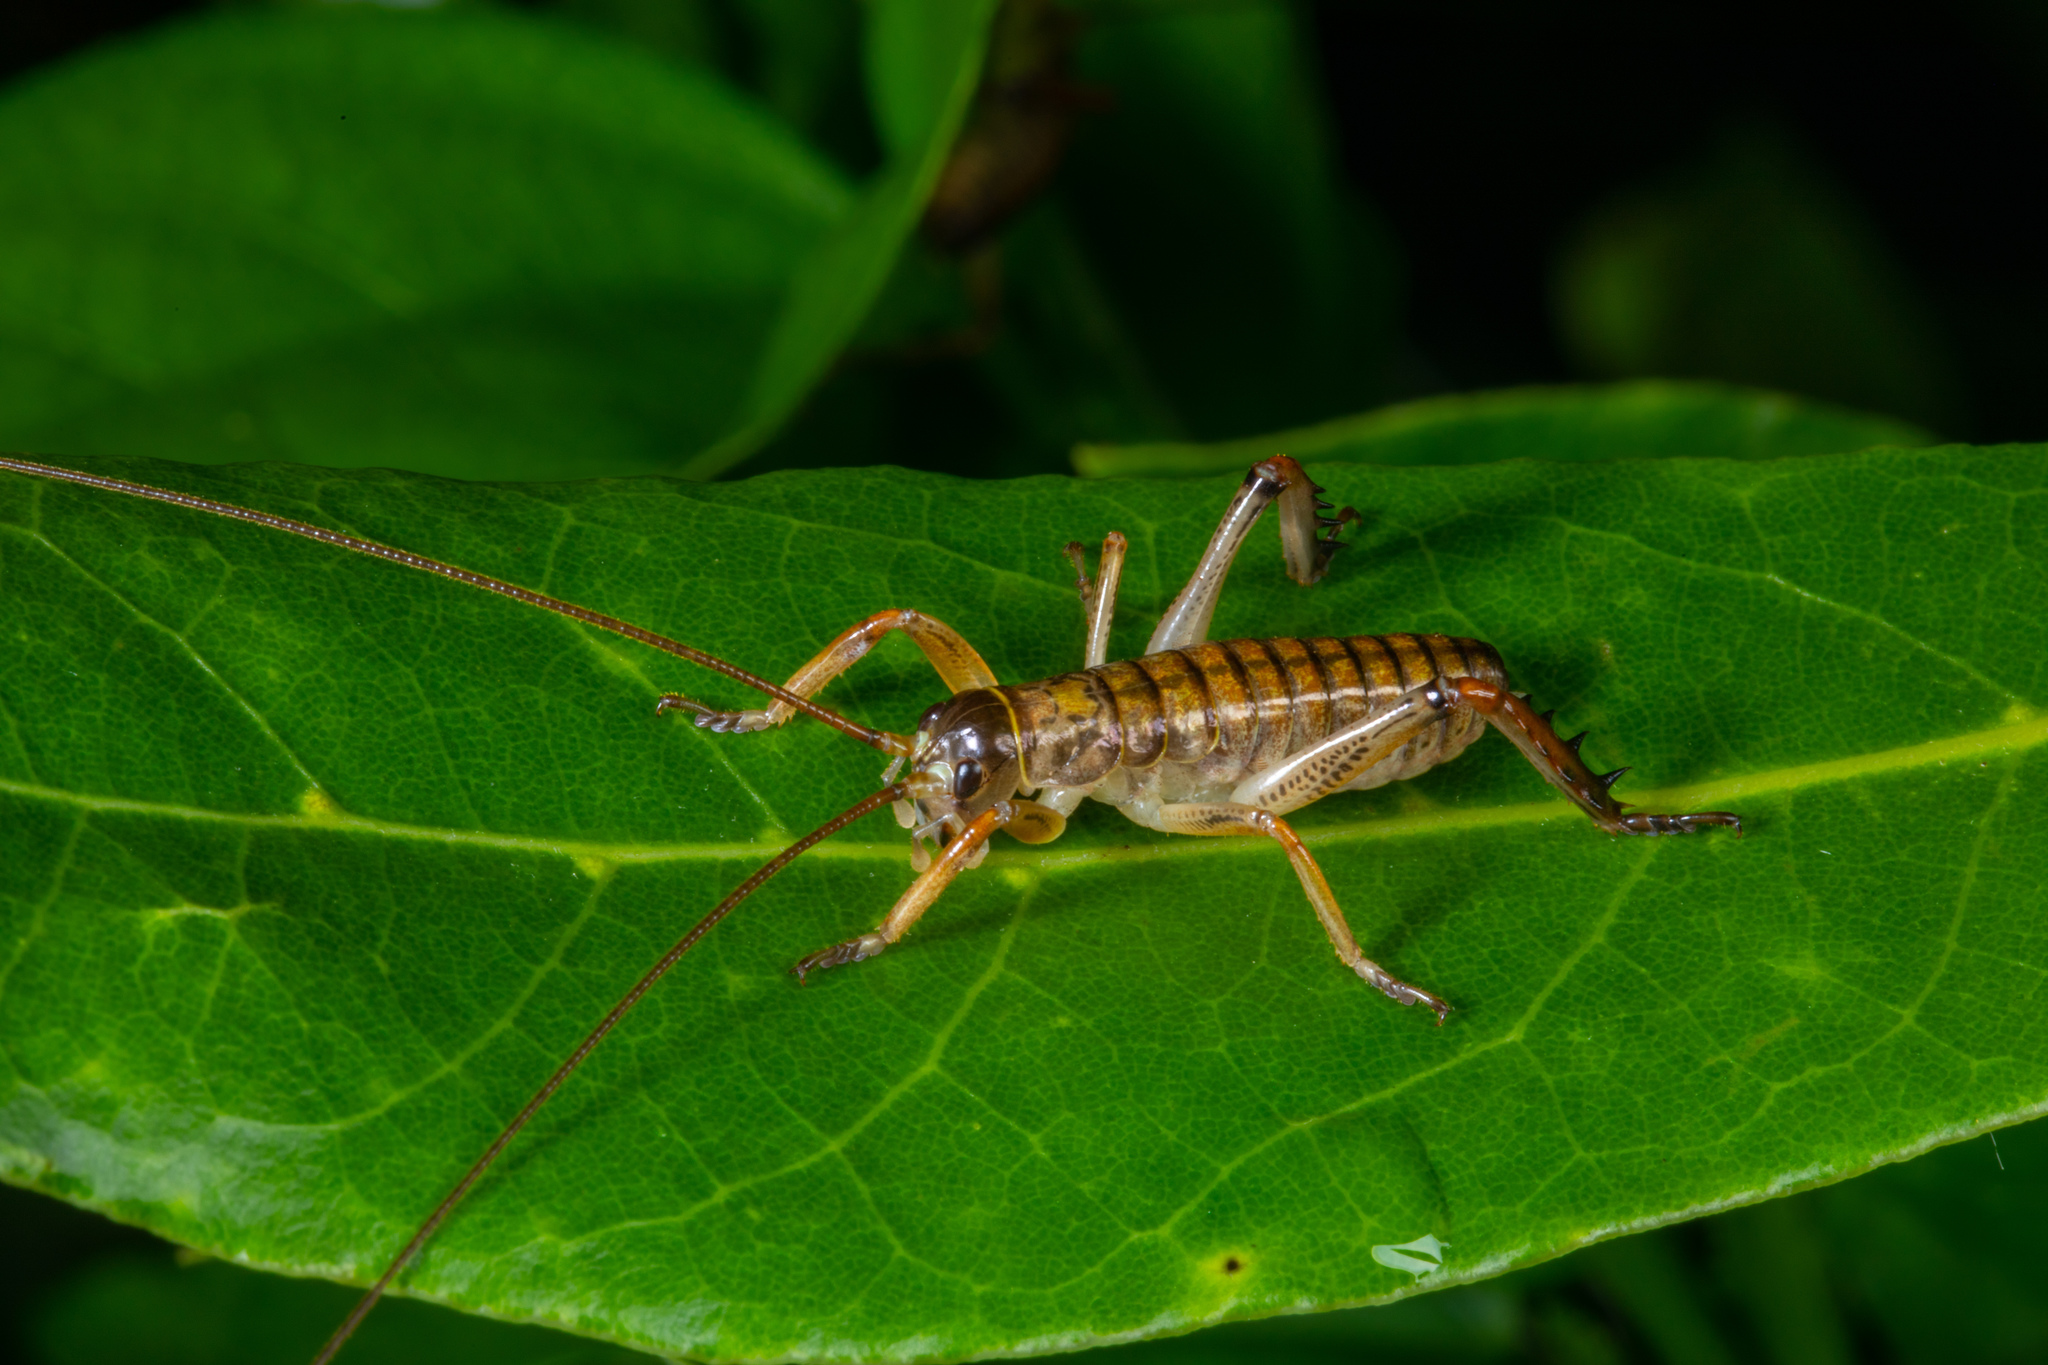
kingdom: Animalia
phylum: Arthropoda
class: Insecta
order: Orthoptera
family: Anostostomatidae
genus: Hemideina
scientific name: Hemideina thoracica
